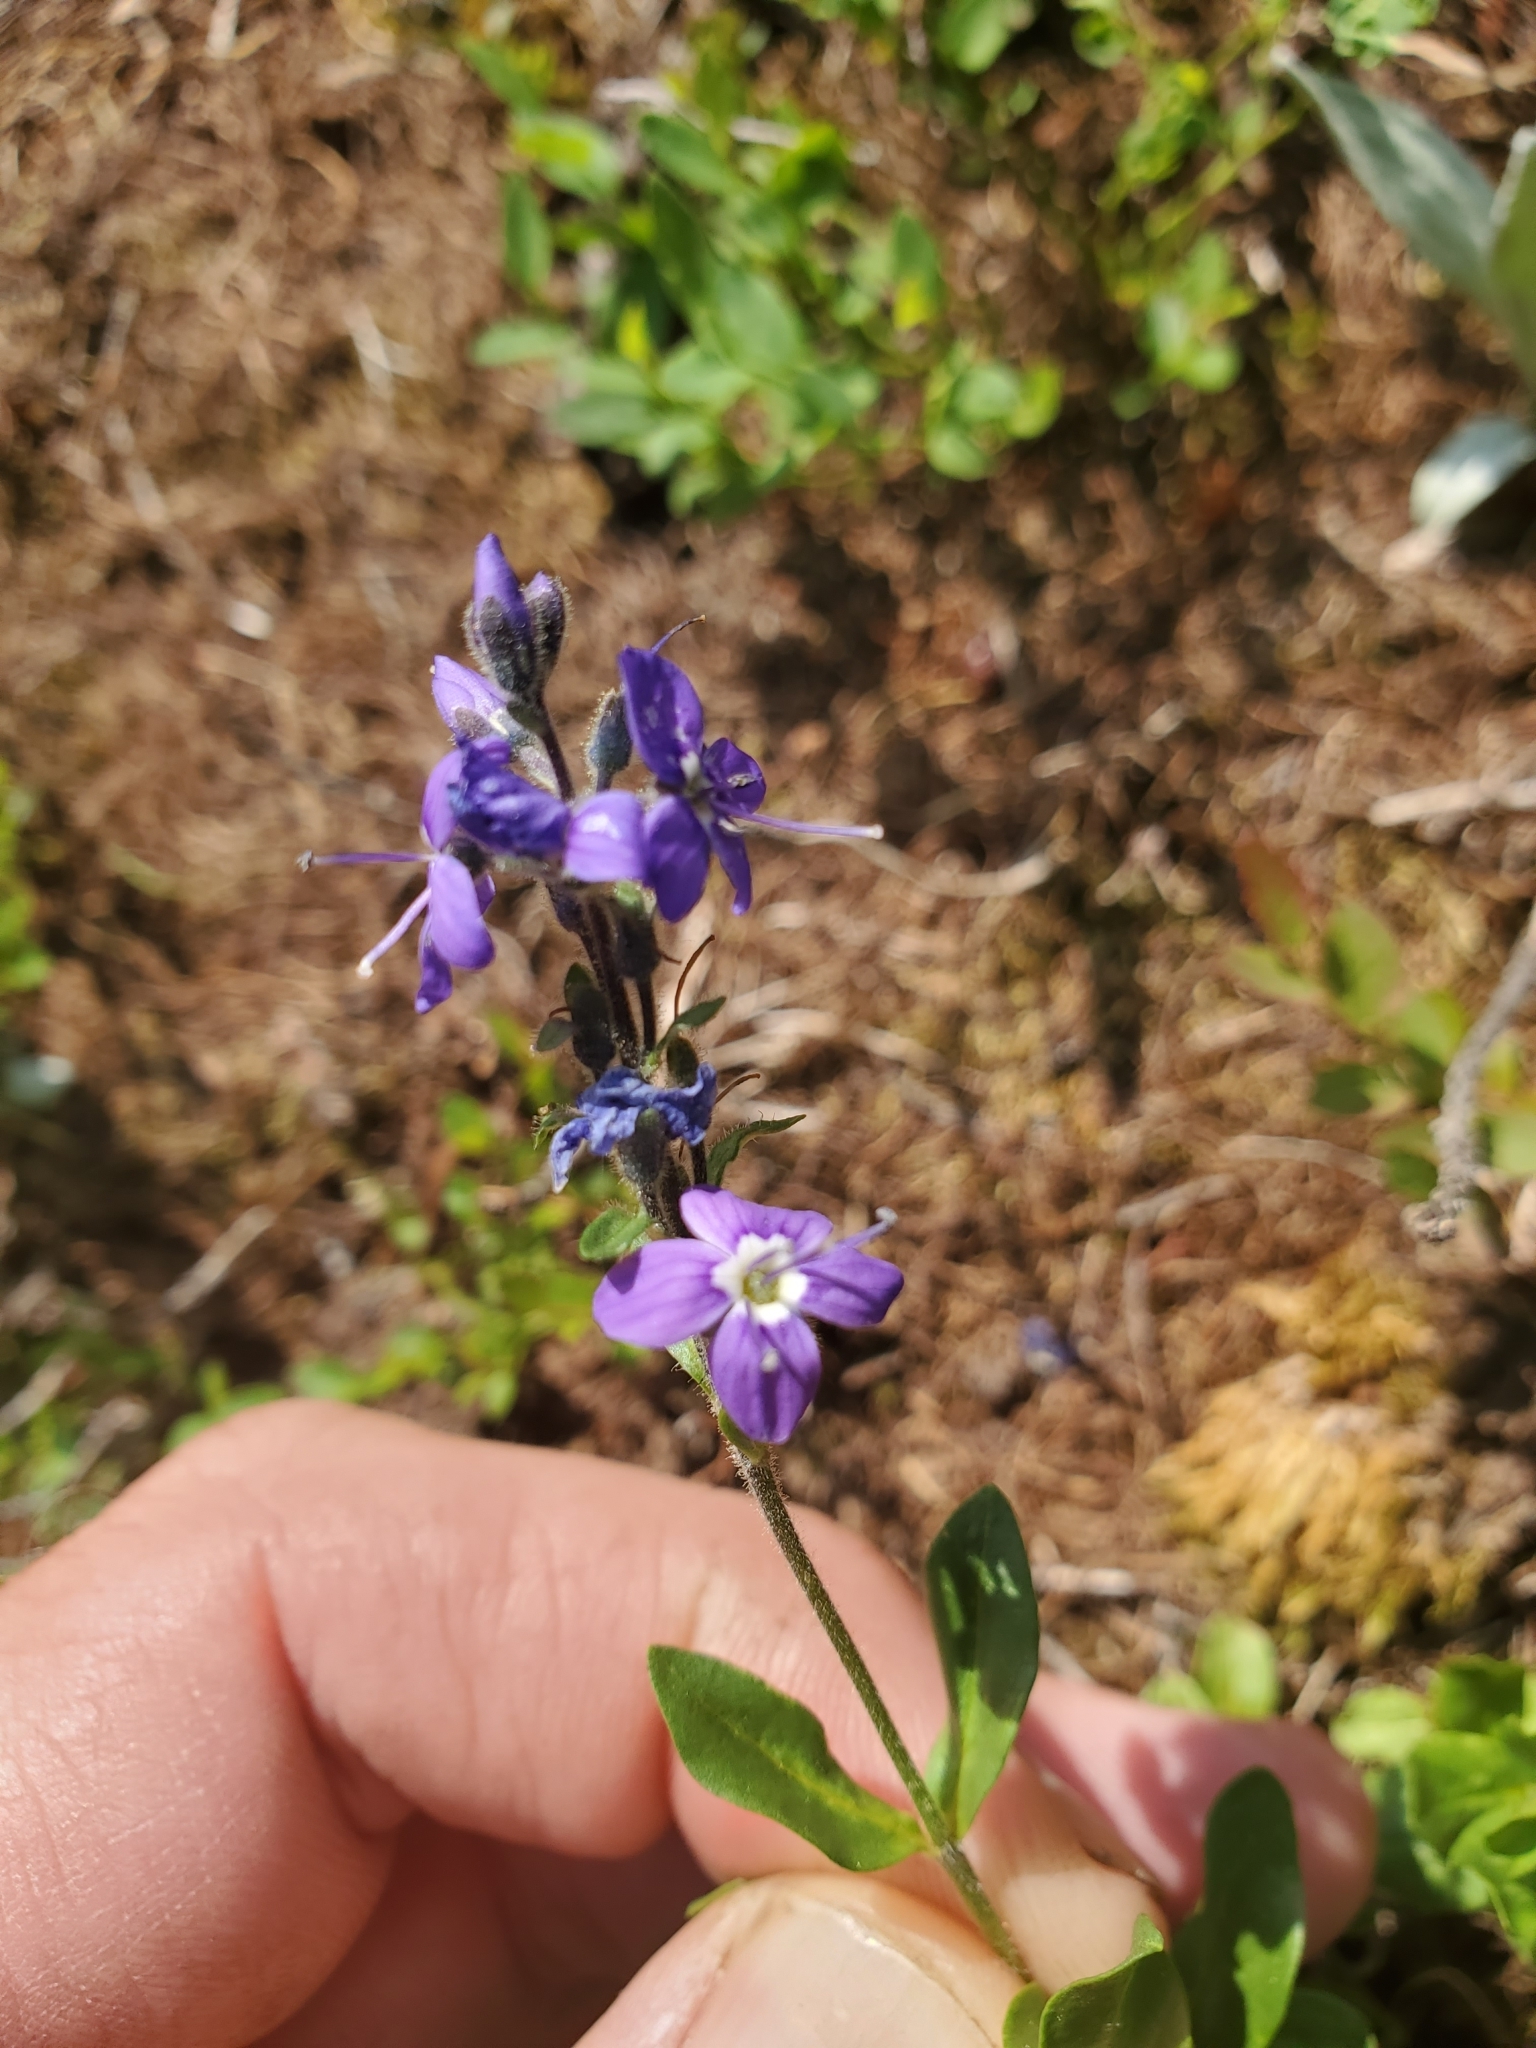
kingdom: Plantae
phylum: Tracheophyta
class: Magnoliopsida
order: Lamiales
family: Plantaginaceae
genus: Veronica
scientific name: Veronica cusickii
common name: Cusick's speedwell
